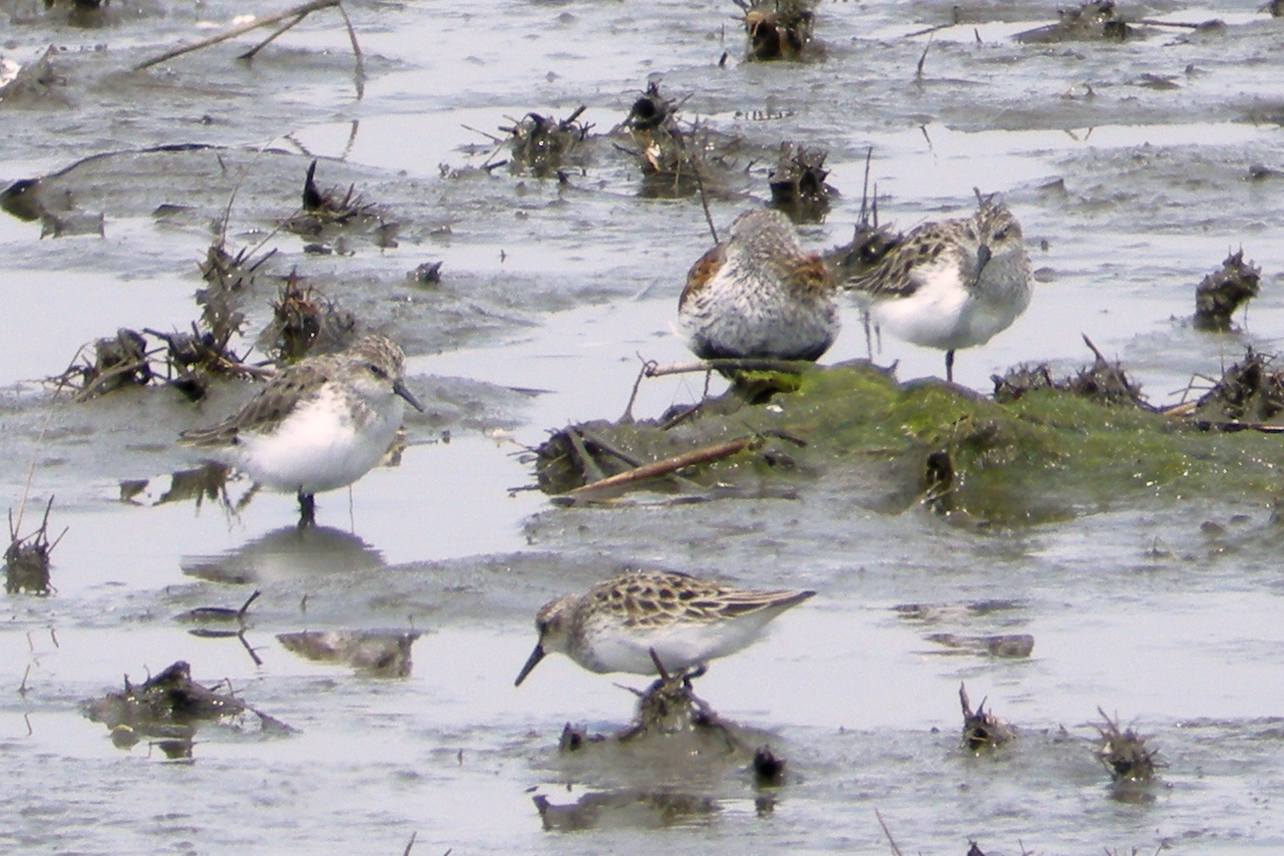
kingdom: Animalia
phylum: Chordata
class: Aves
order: Charadriiformes
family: Scolopacidae
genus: Calidris
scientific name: Calidris pusilla
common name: Semipalmated sandpiper
